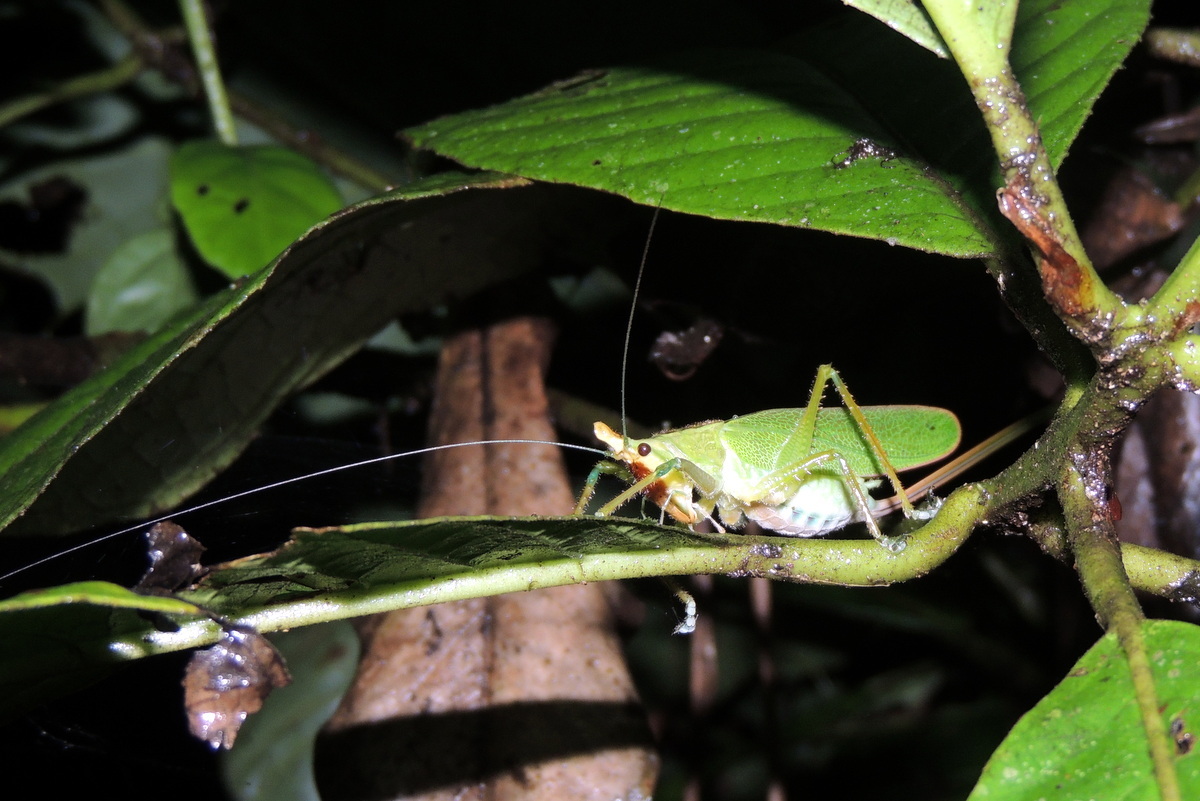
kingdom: Animalia
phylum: Arthropoda
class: Insecta
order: Orthoptera
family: Tettigoniidae
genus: Copiphora
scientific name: Copiphora hastata
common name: Brown-faced spearbearer
